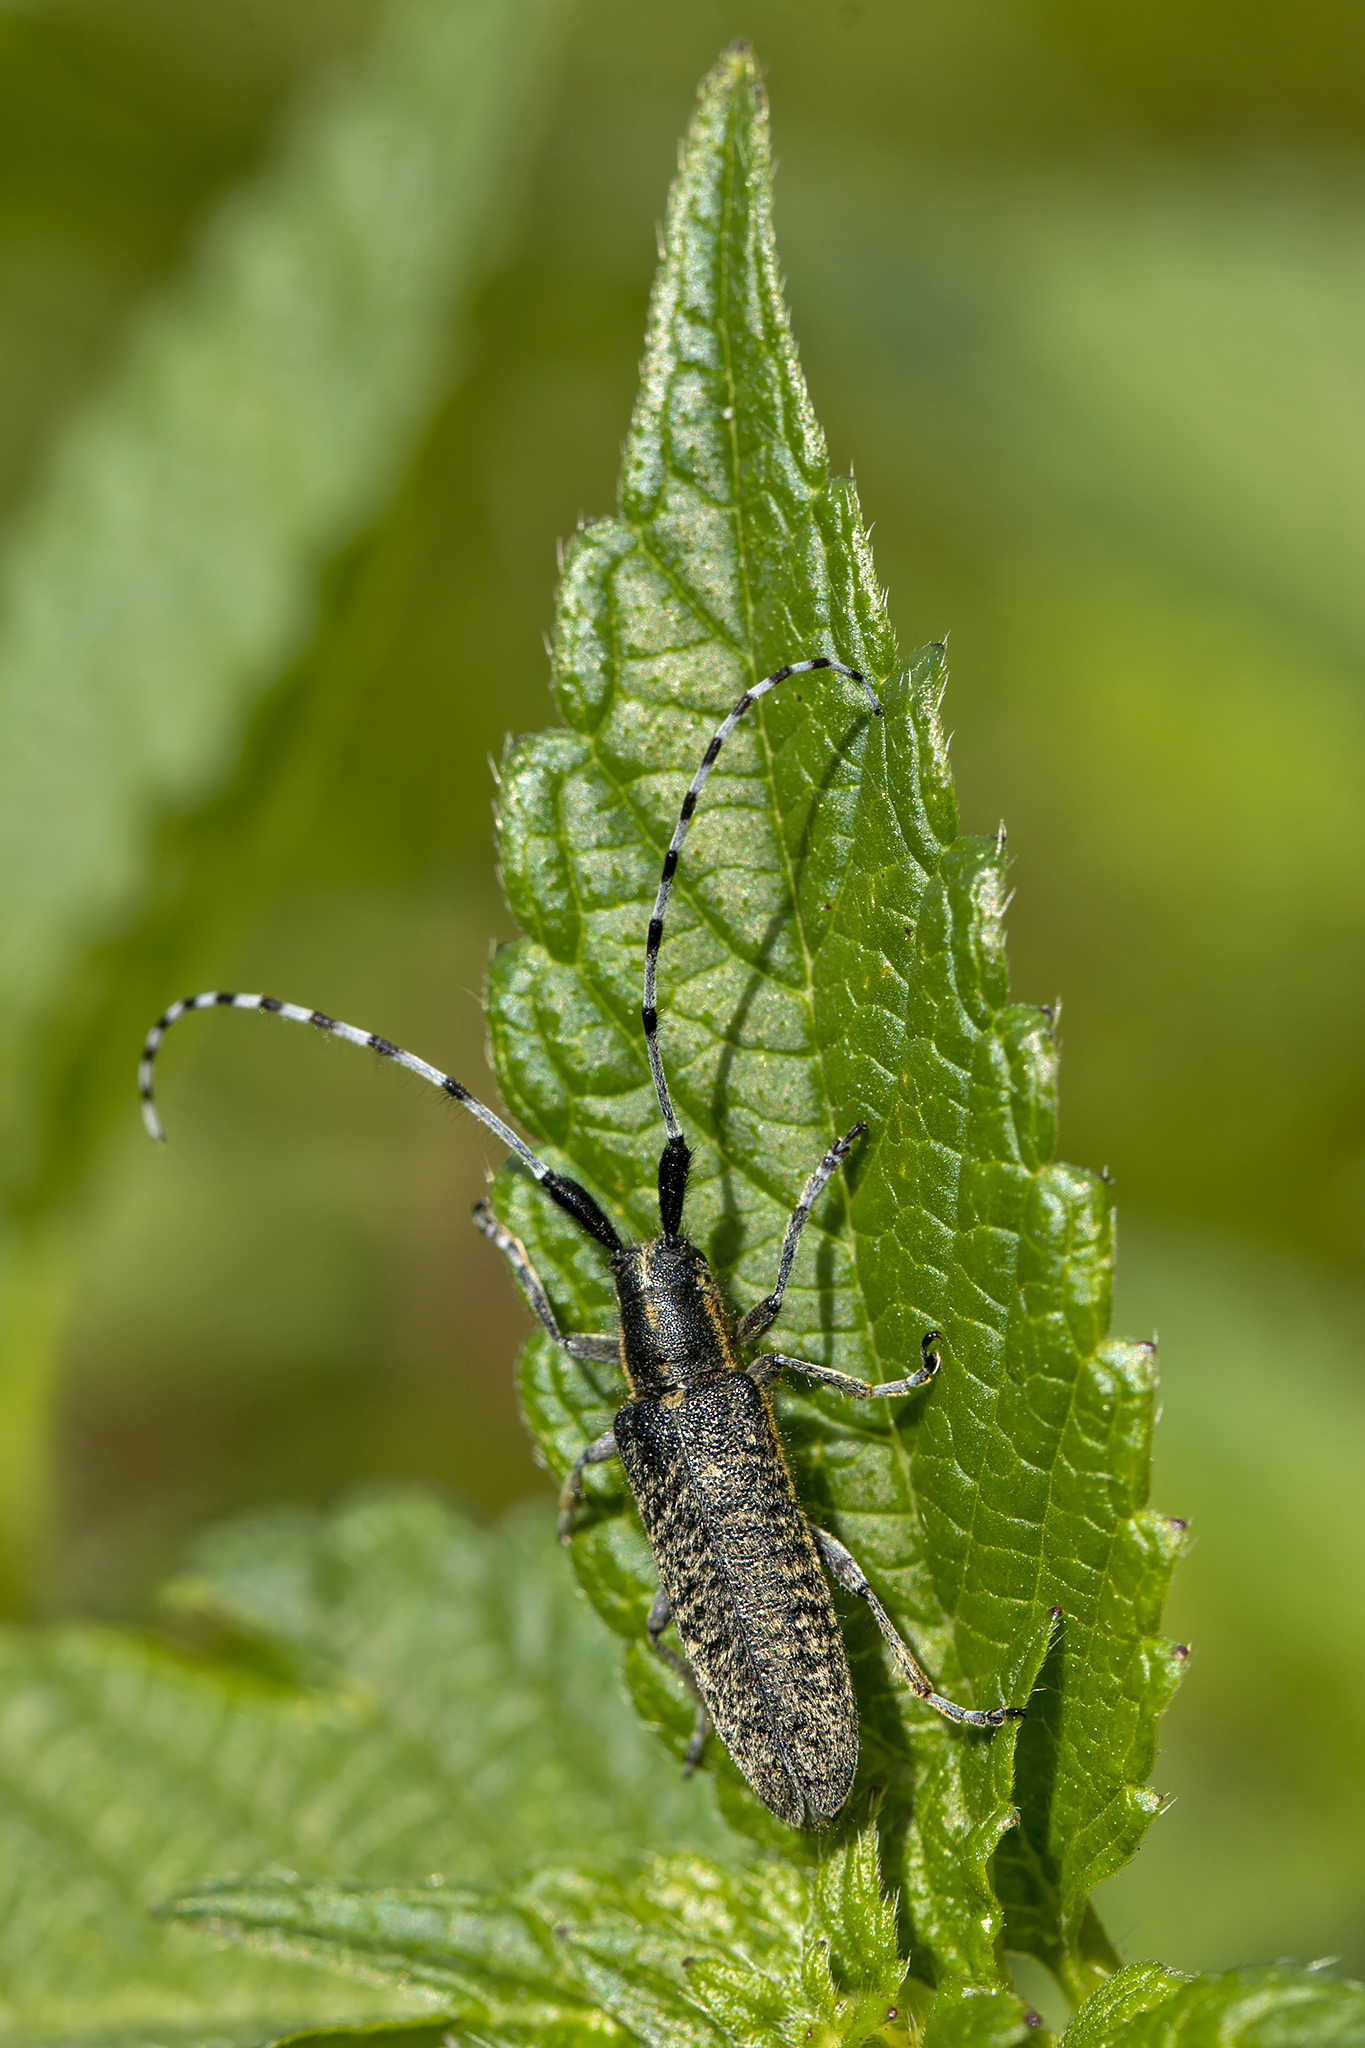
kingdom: Animalia
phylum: Arthropoda
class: Insecta
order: Coleoptera
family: Cerambycidae
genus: Agapanthia
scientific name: Agapanthia villosoviridescens
